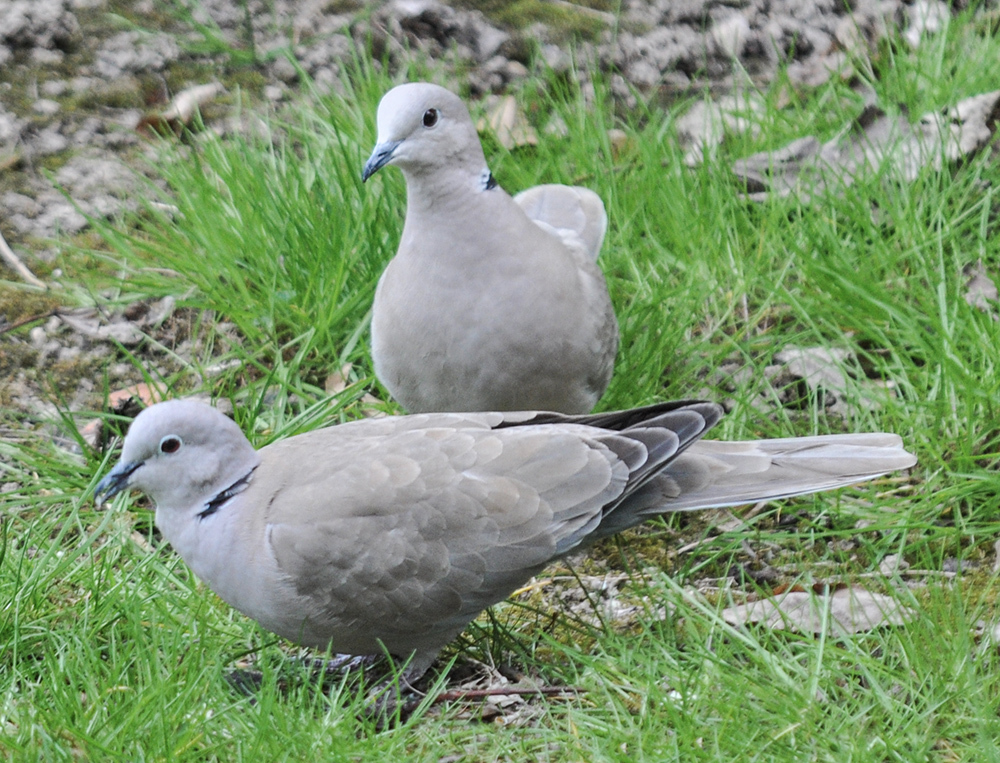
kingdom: Animalia
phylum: Chordata
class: Aves
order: Columbiformes
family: Columbidae
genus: Streptopelia
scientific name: Streptopelia decaocto
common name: Eurasian collared dove
